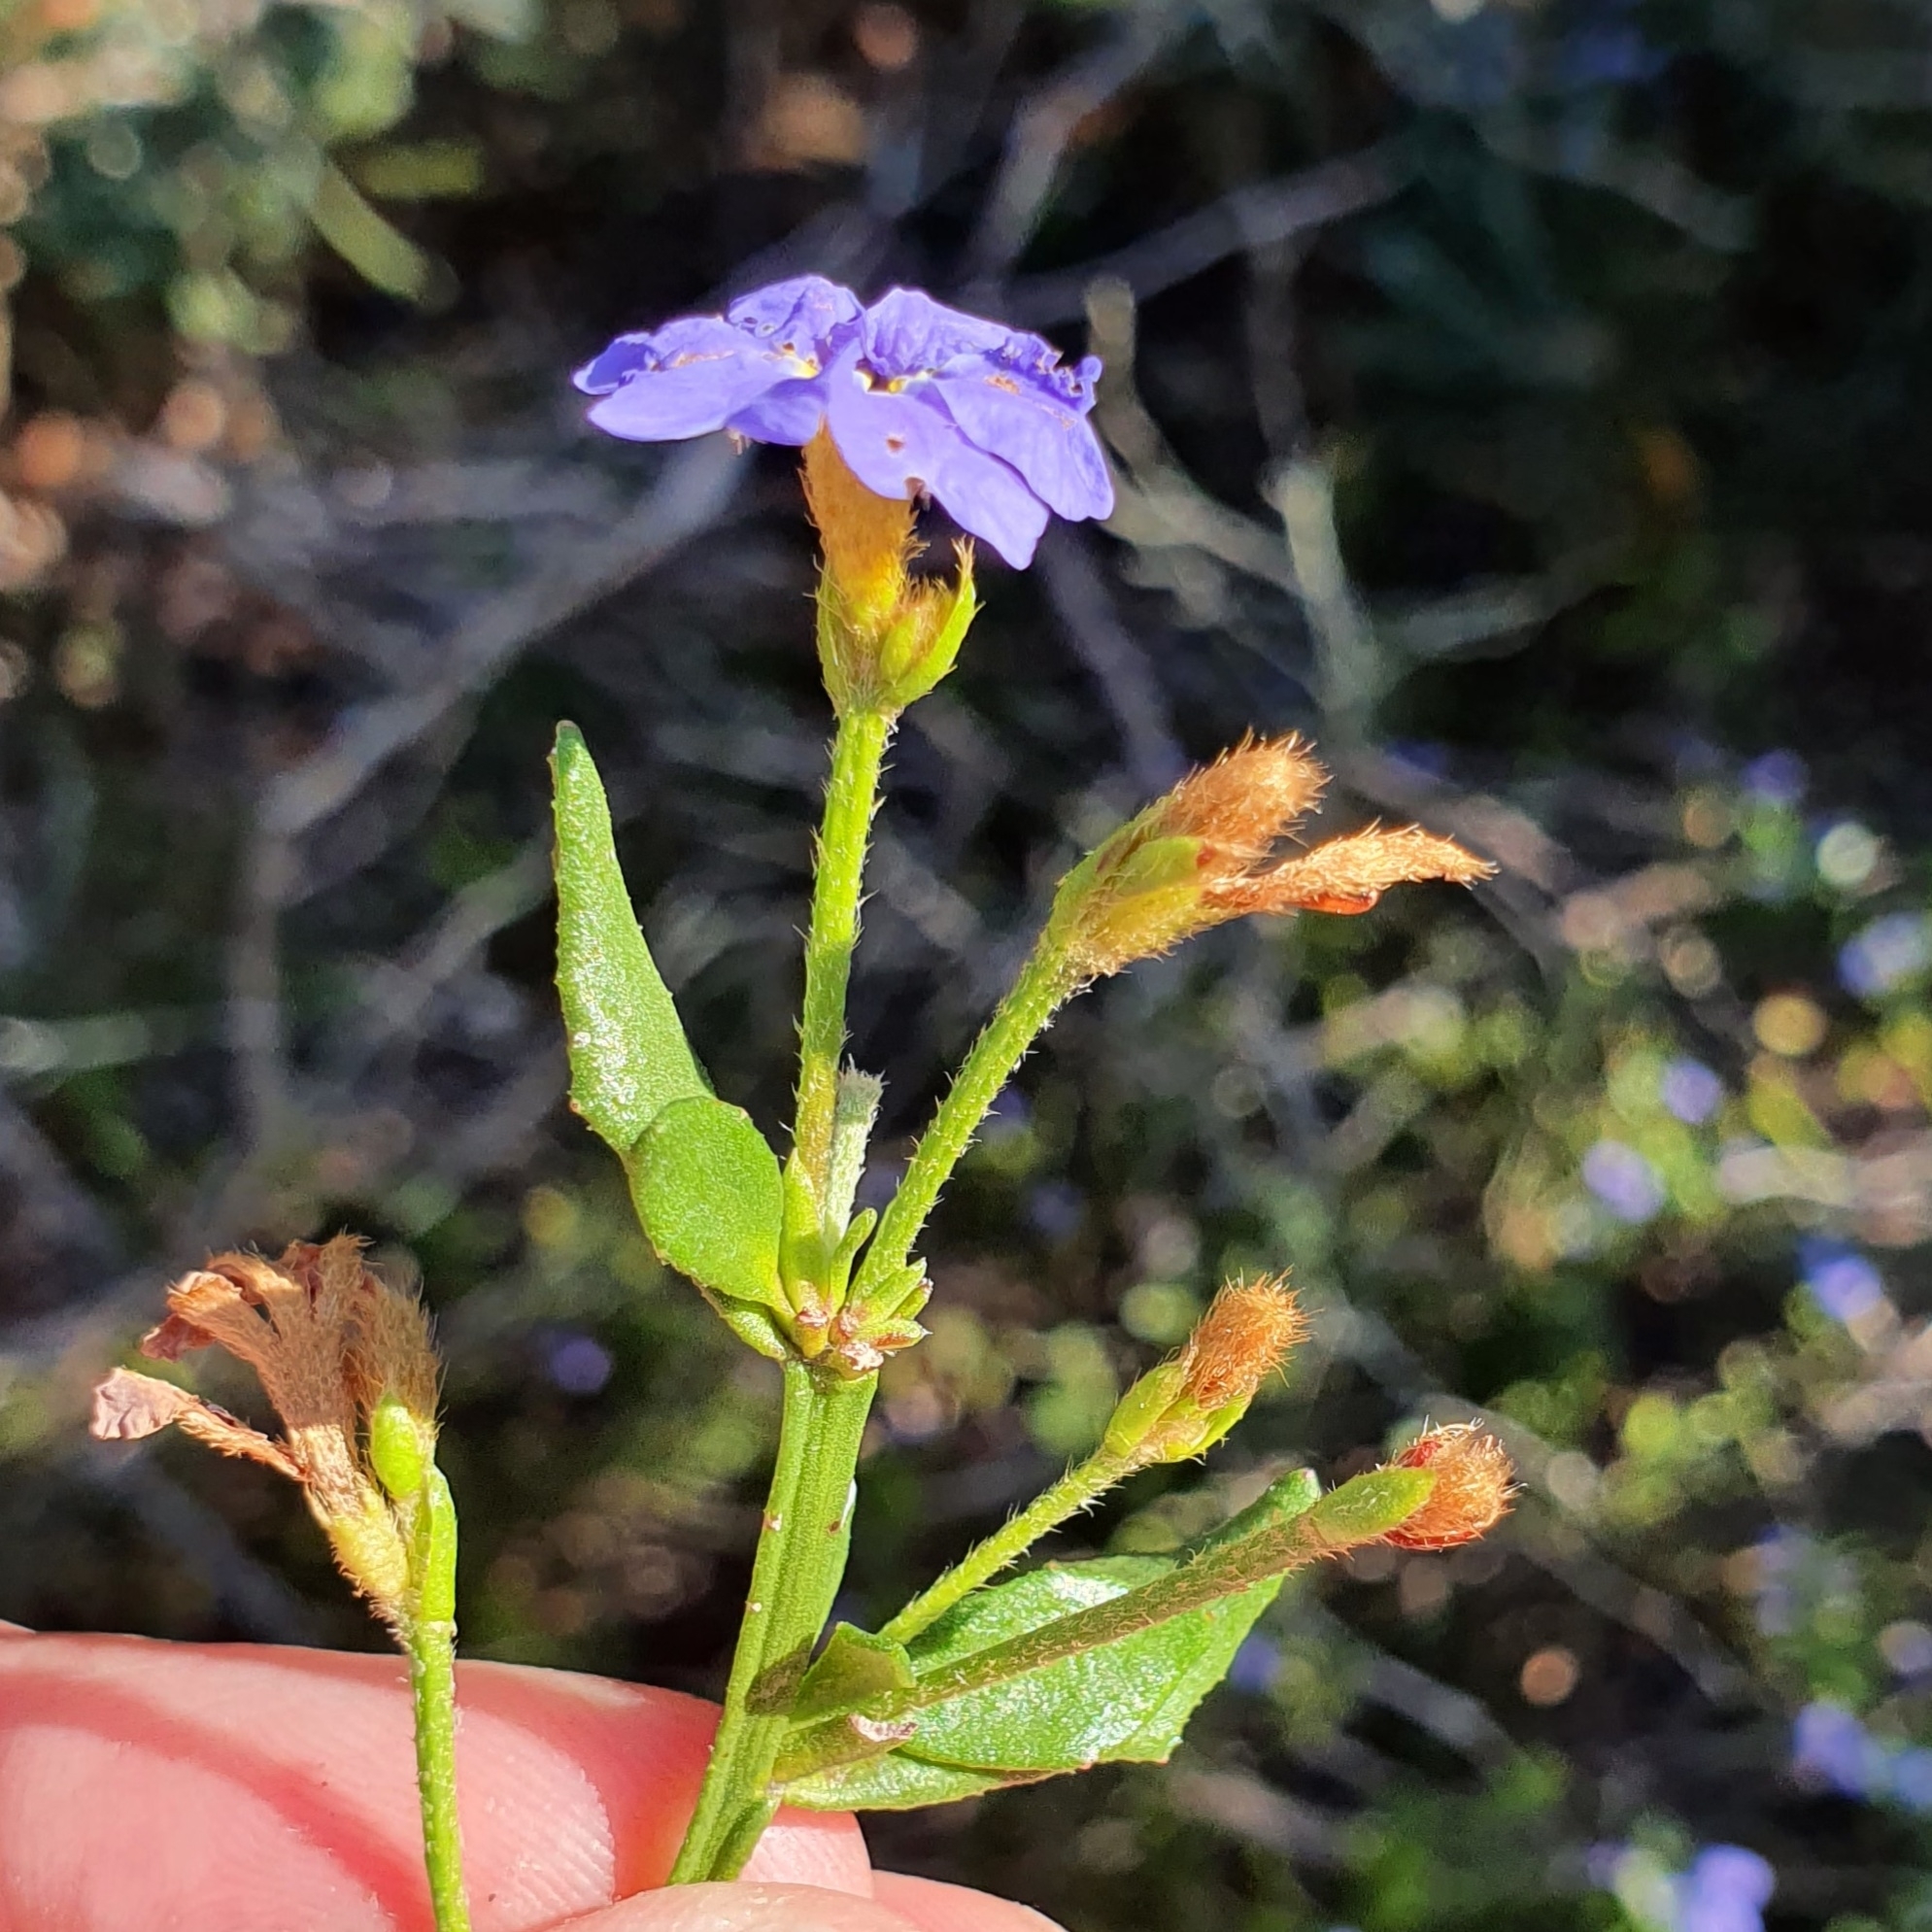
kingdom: Plantae
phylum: Tracheophyta
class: Magnoliopsida
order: Asterales
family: Goodeniaceae
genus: Dampiera
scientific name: Dampiera stricta
